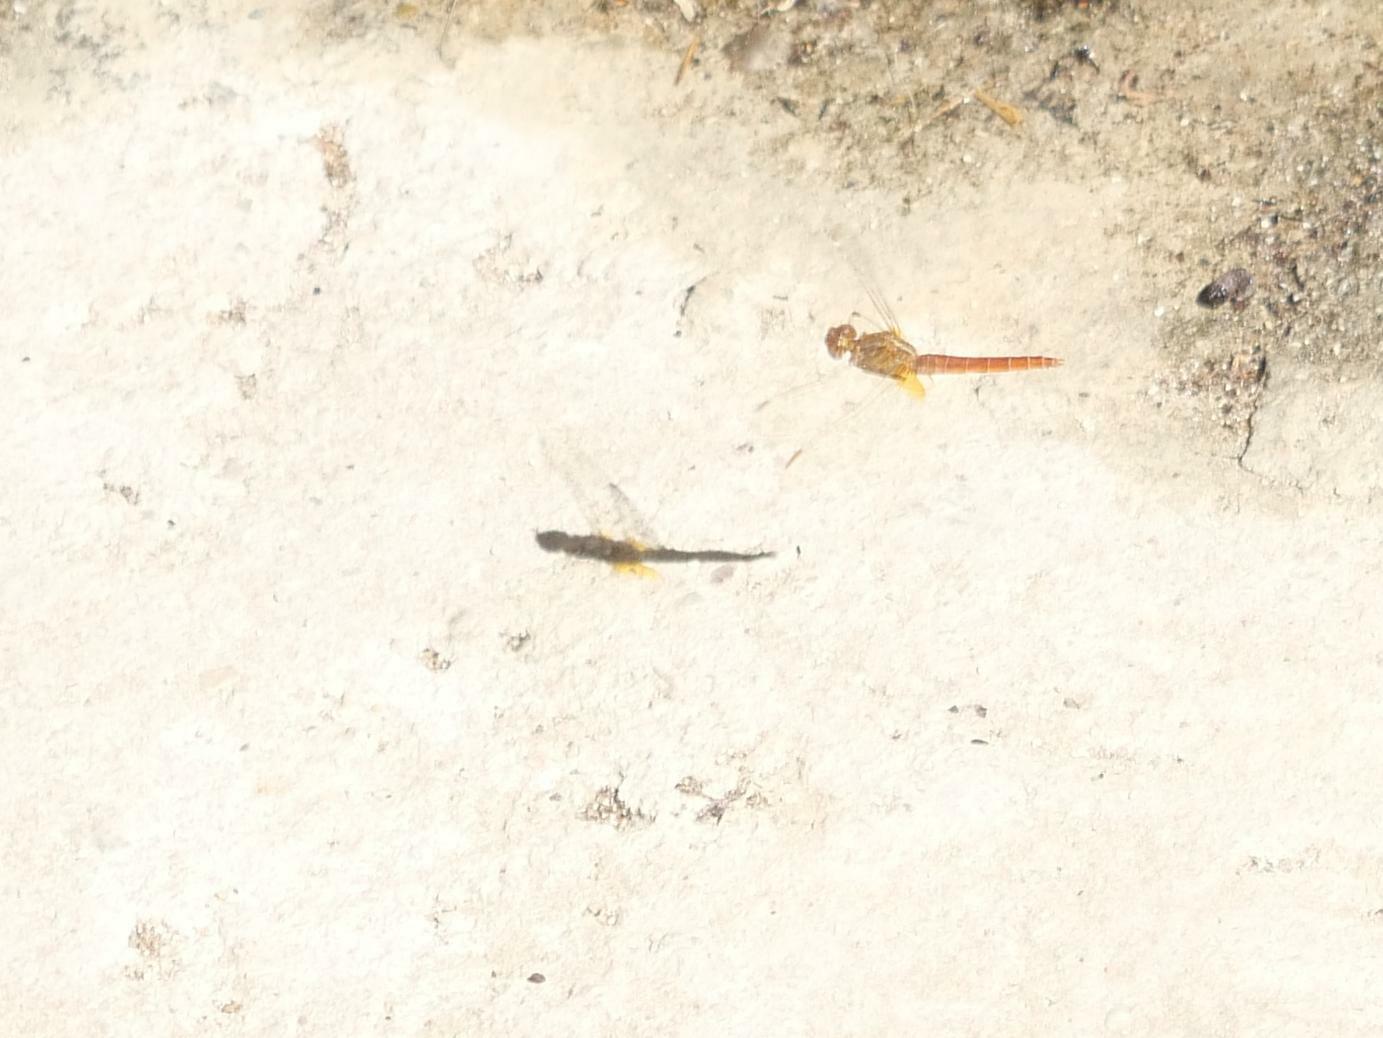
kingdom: Animalia
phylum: Arthropoda
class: Insecta
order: Odonata
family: Libellulidae
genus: Crocothemis
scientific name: Crocothemis erythraea
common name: Scarlet dragonfly
